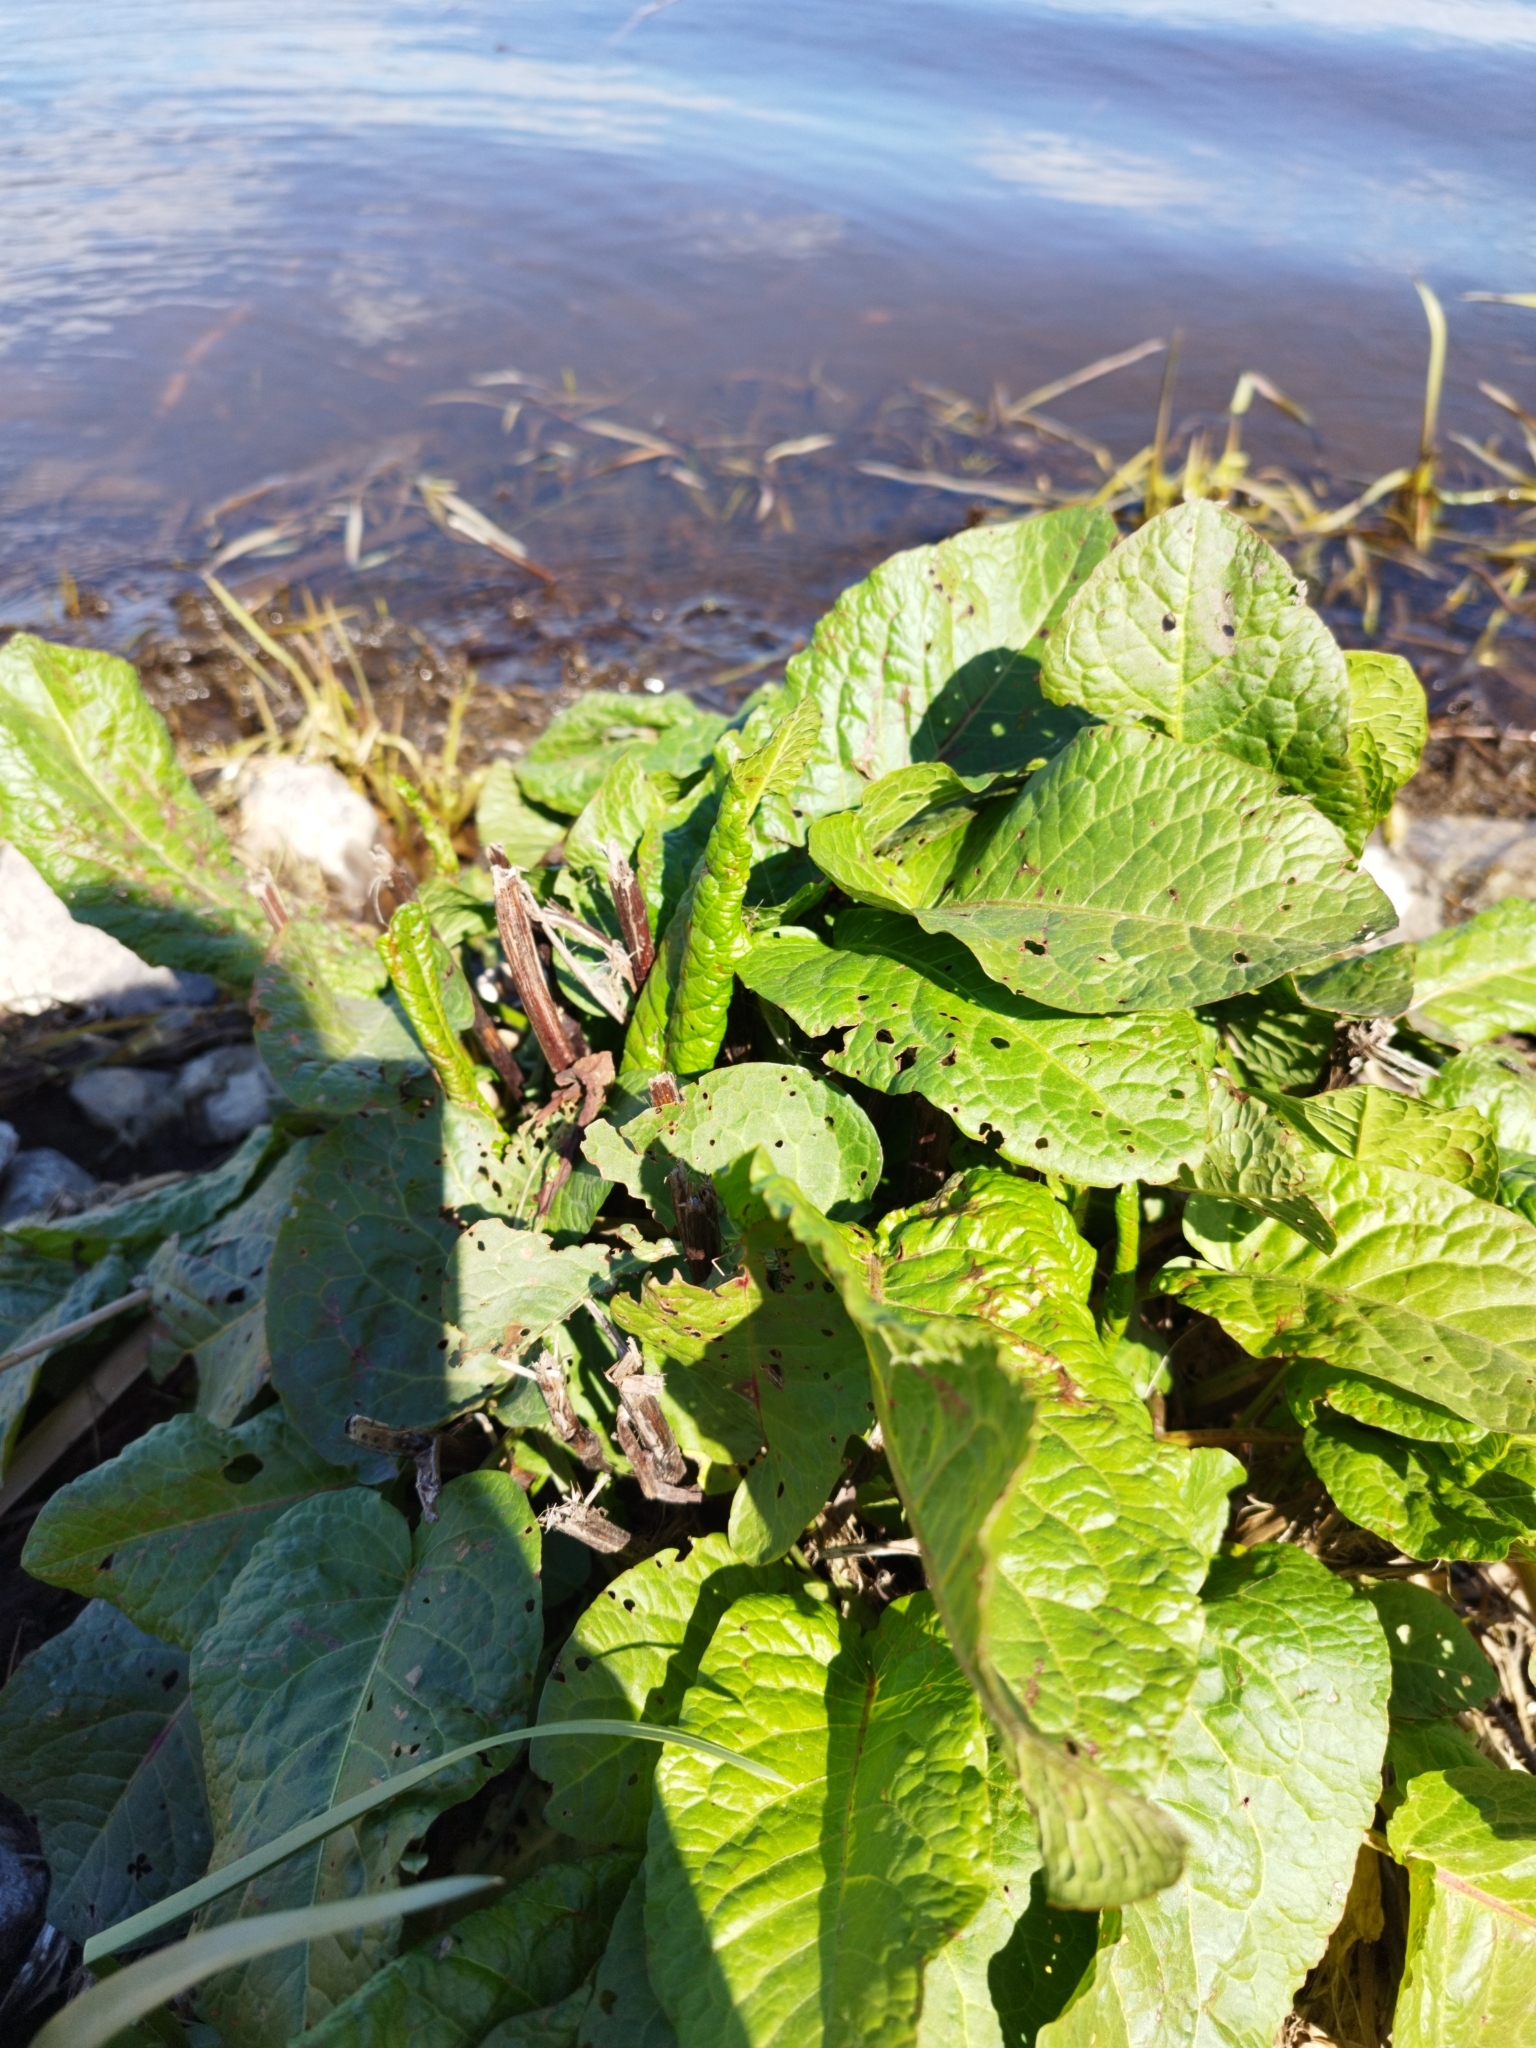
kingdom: Plantae
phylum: Tracheophyta
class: Magnoliopsida
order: Caryophyllales
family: Polygonaceae
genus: Rumex
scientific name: Rumex obtusifolius
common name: Bitter dock
